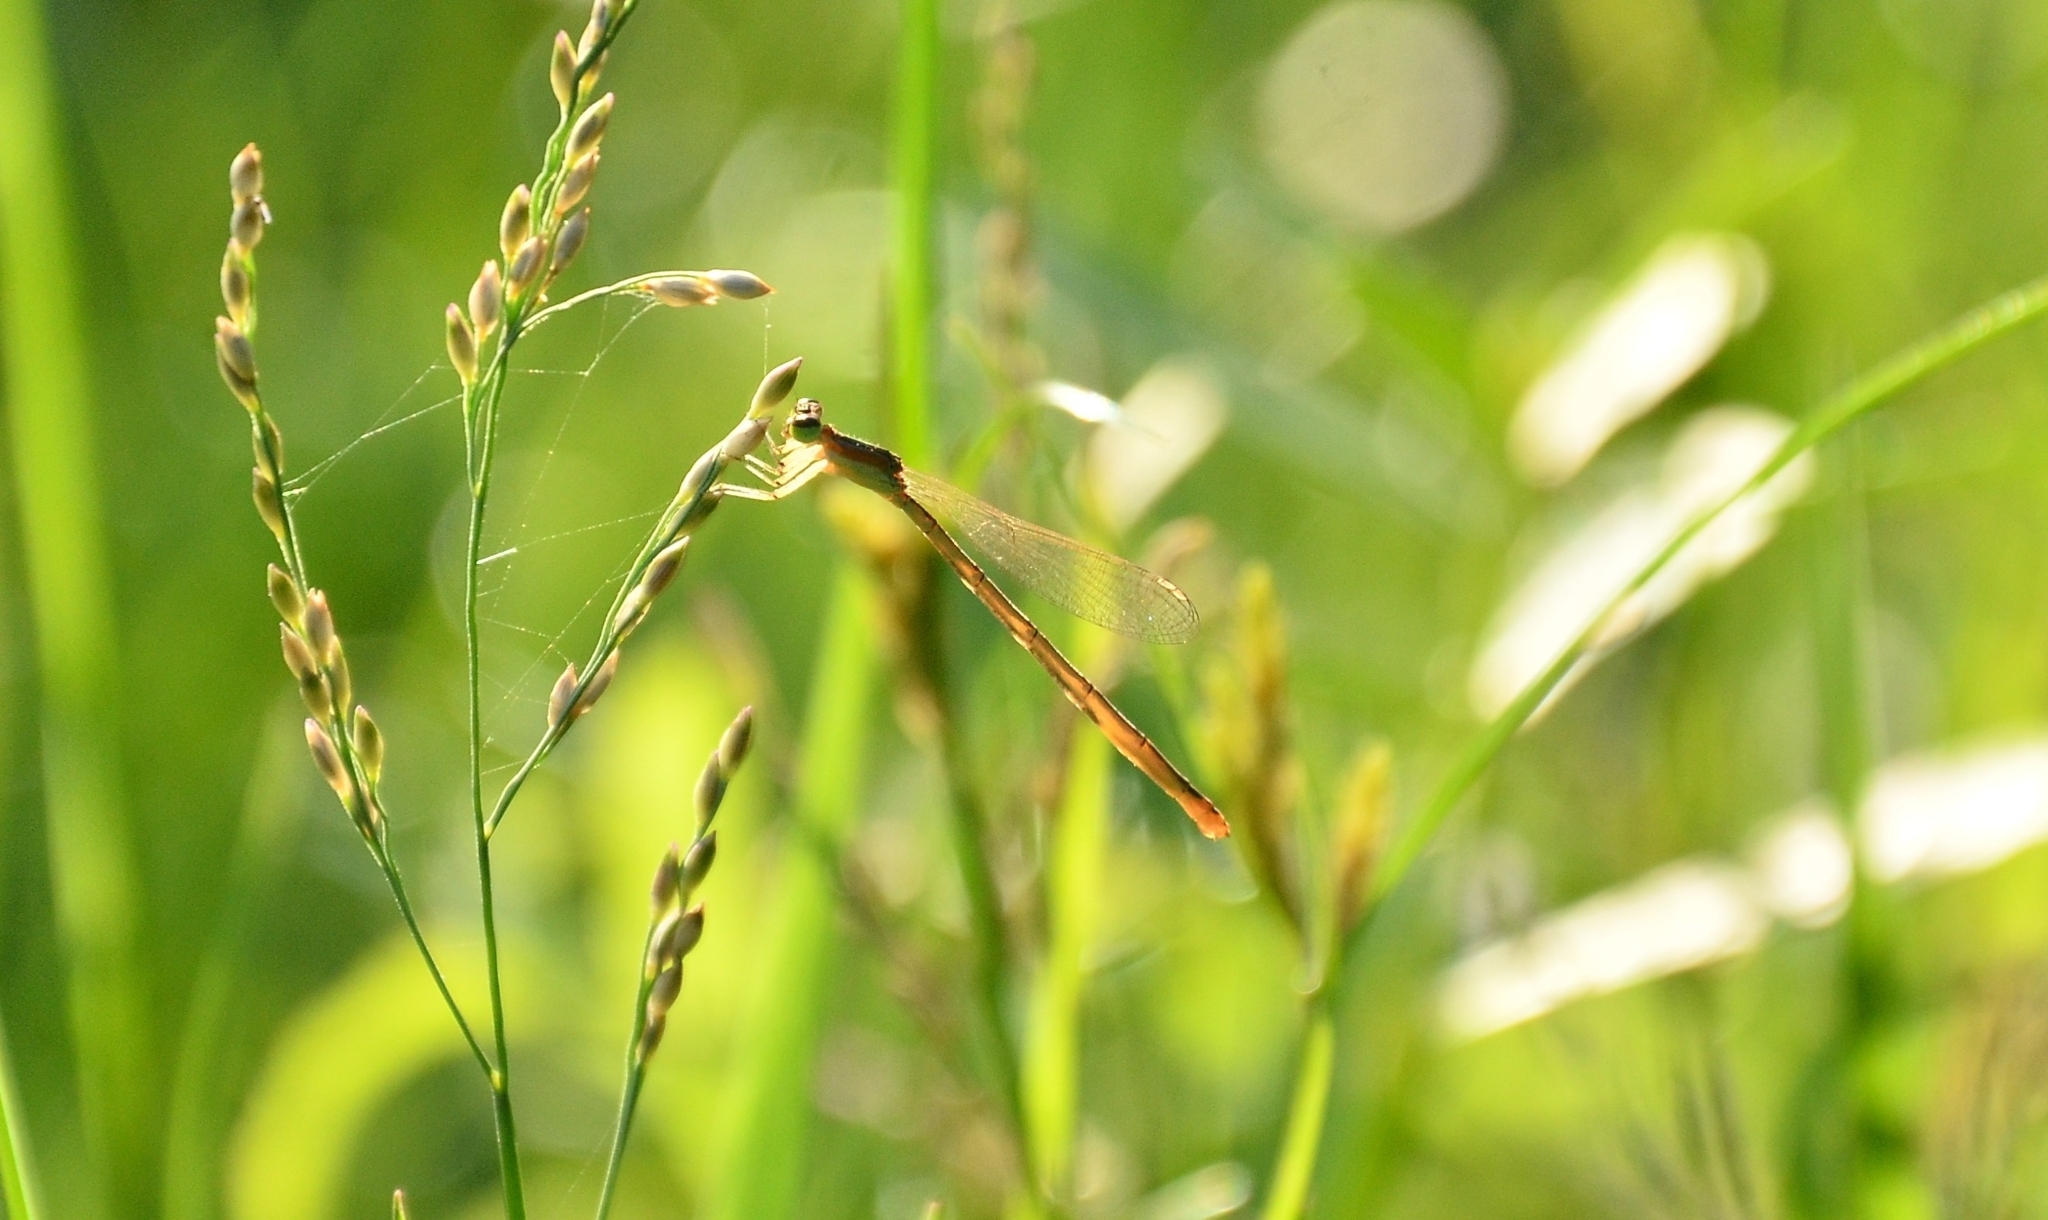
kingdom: Animalia
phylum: Arthropoda
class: Insecta
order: Odonata
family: Coenagrionidae
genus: Agriocnemis
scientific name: Agriocnemis pygmaea
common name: Pygmy wisp
